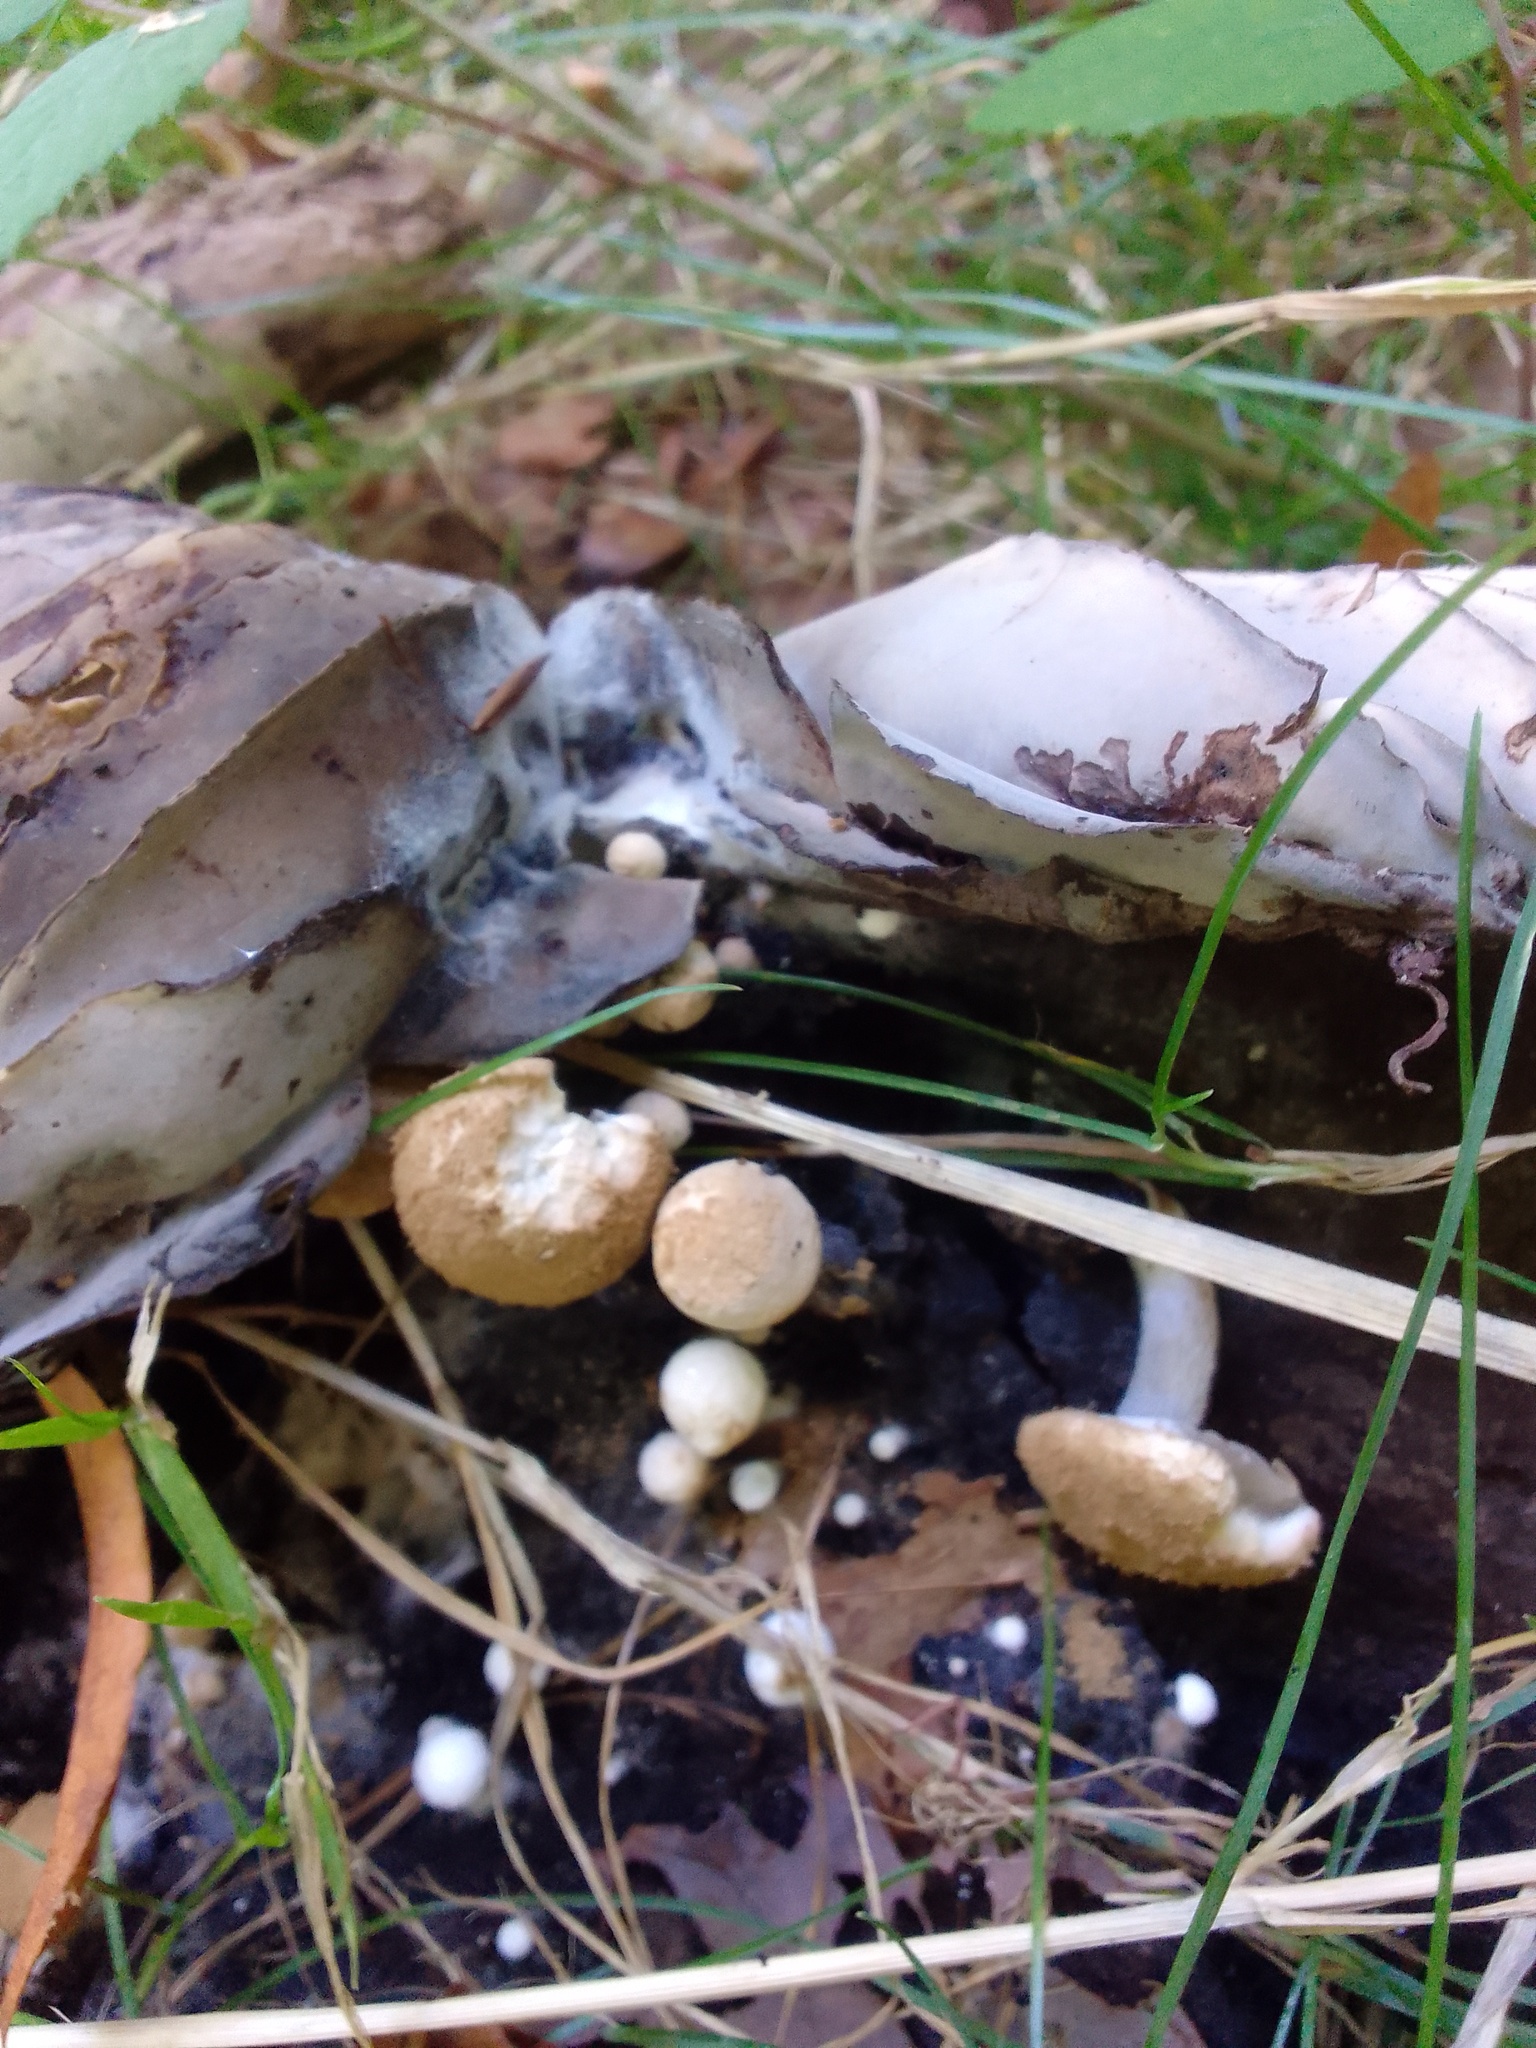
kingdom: Fungi
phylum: Basidiomycota
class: Agaricomycetes
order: Agaricales
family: Lyophyllaceae
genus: Asterophora
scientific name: Asterophora lycoperdoides
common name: Pick-a-back toadstool
